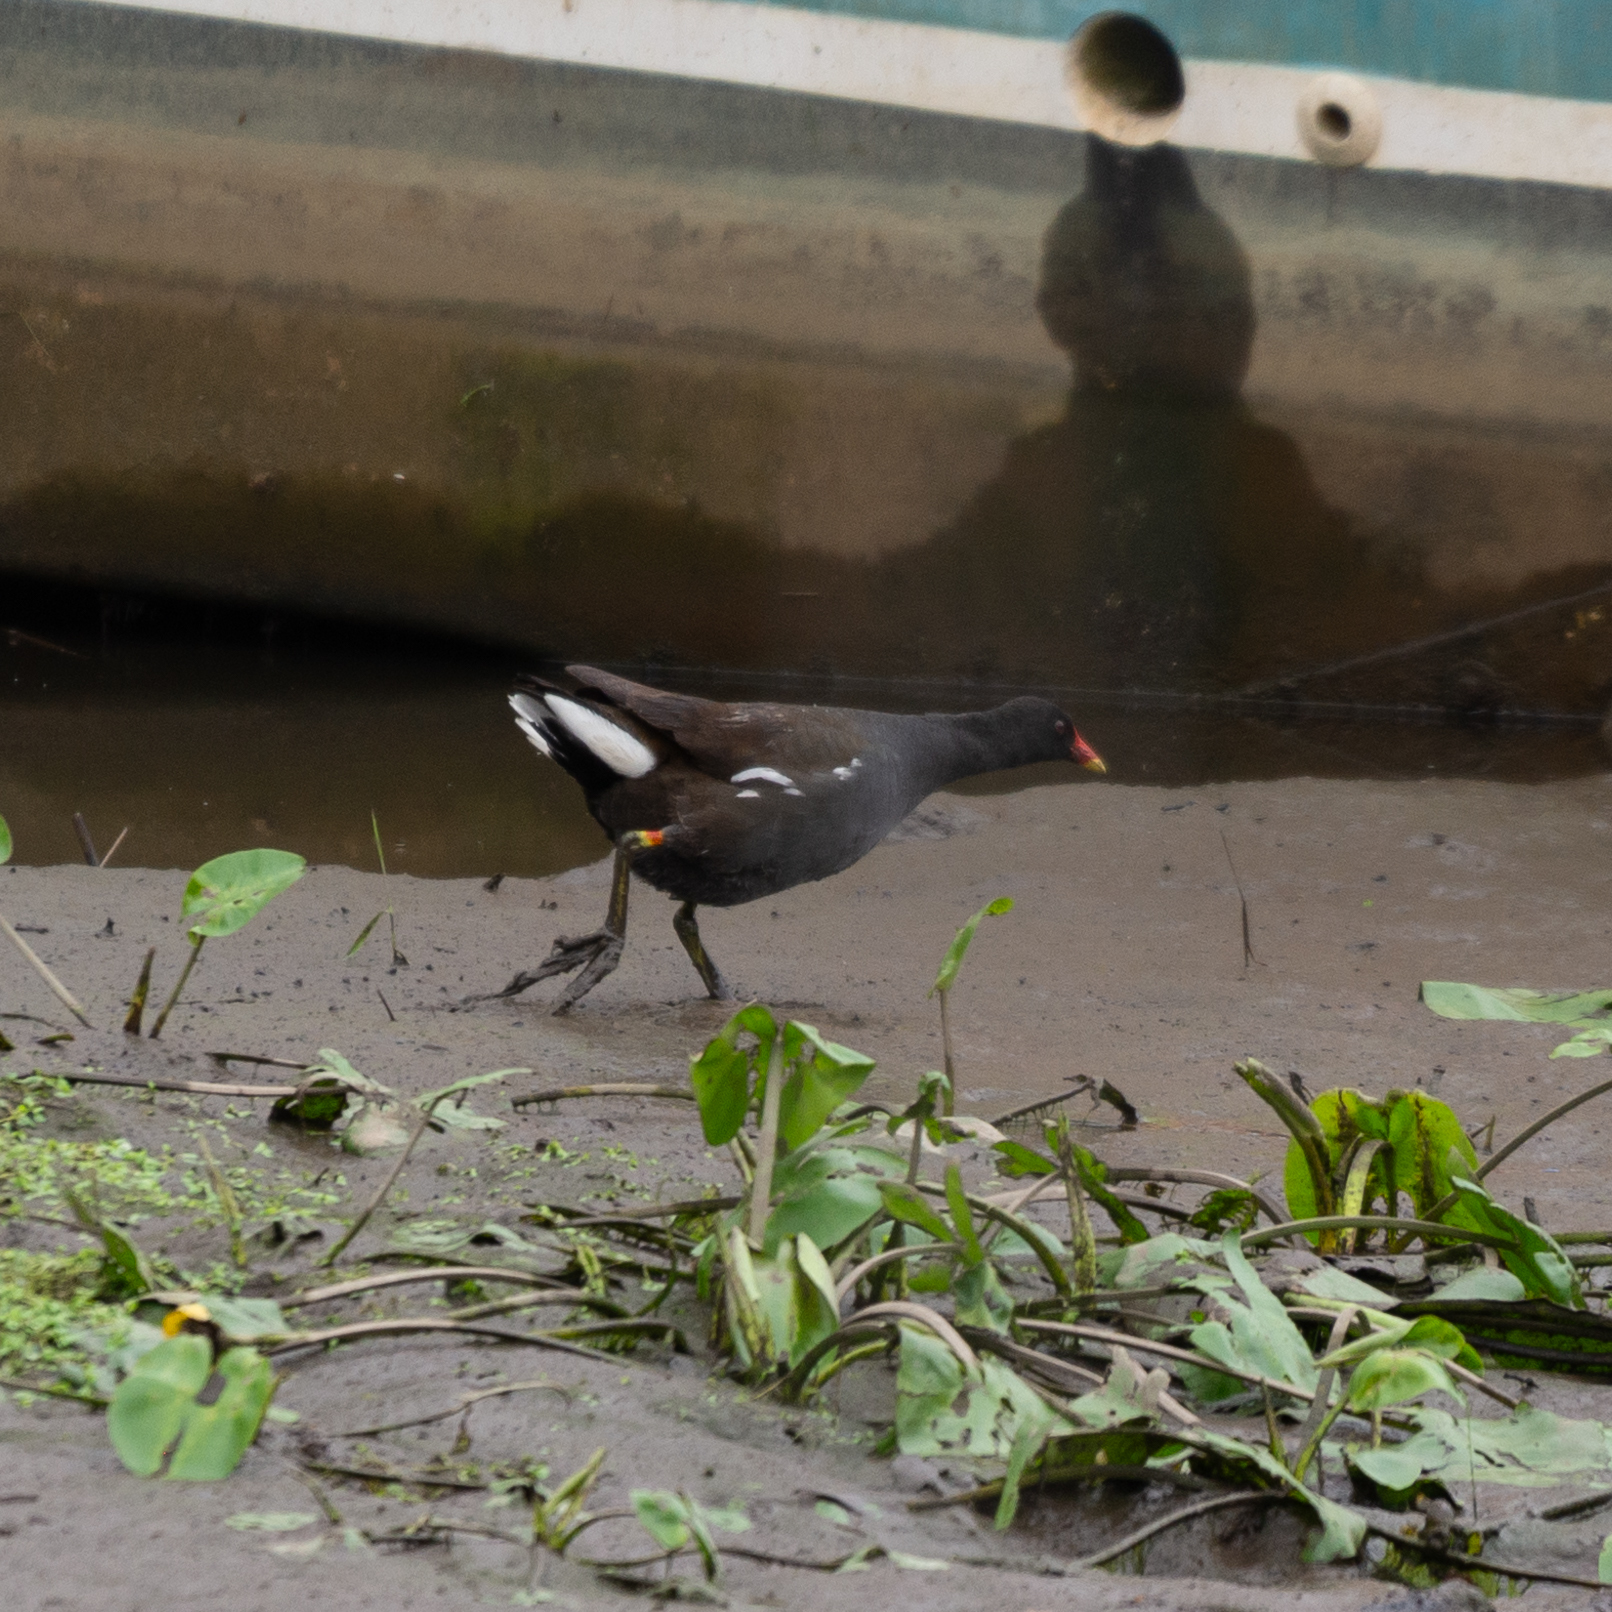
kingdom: Animalia
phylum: Chordata
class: Aves
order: Gruiformes
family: Rallidae
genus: Gallinula
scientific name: Gallinula chloropus
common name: Common moorhen
